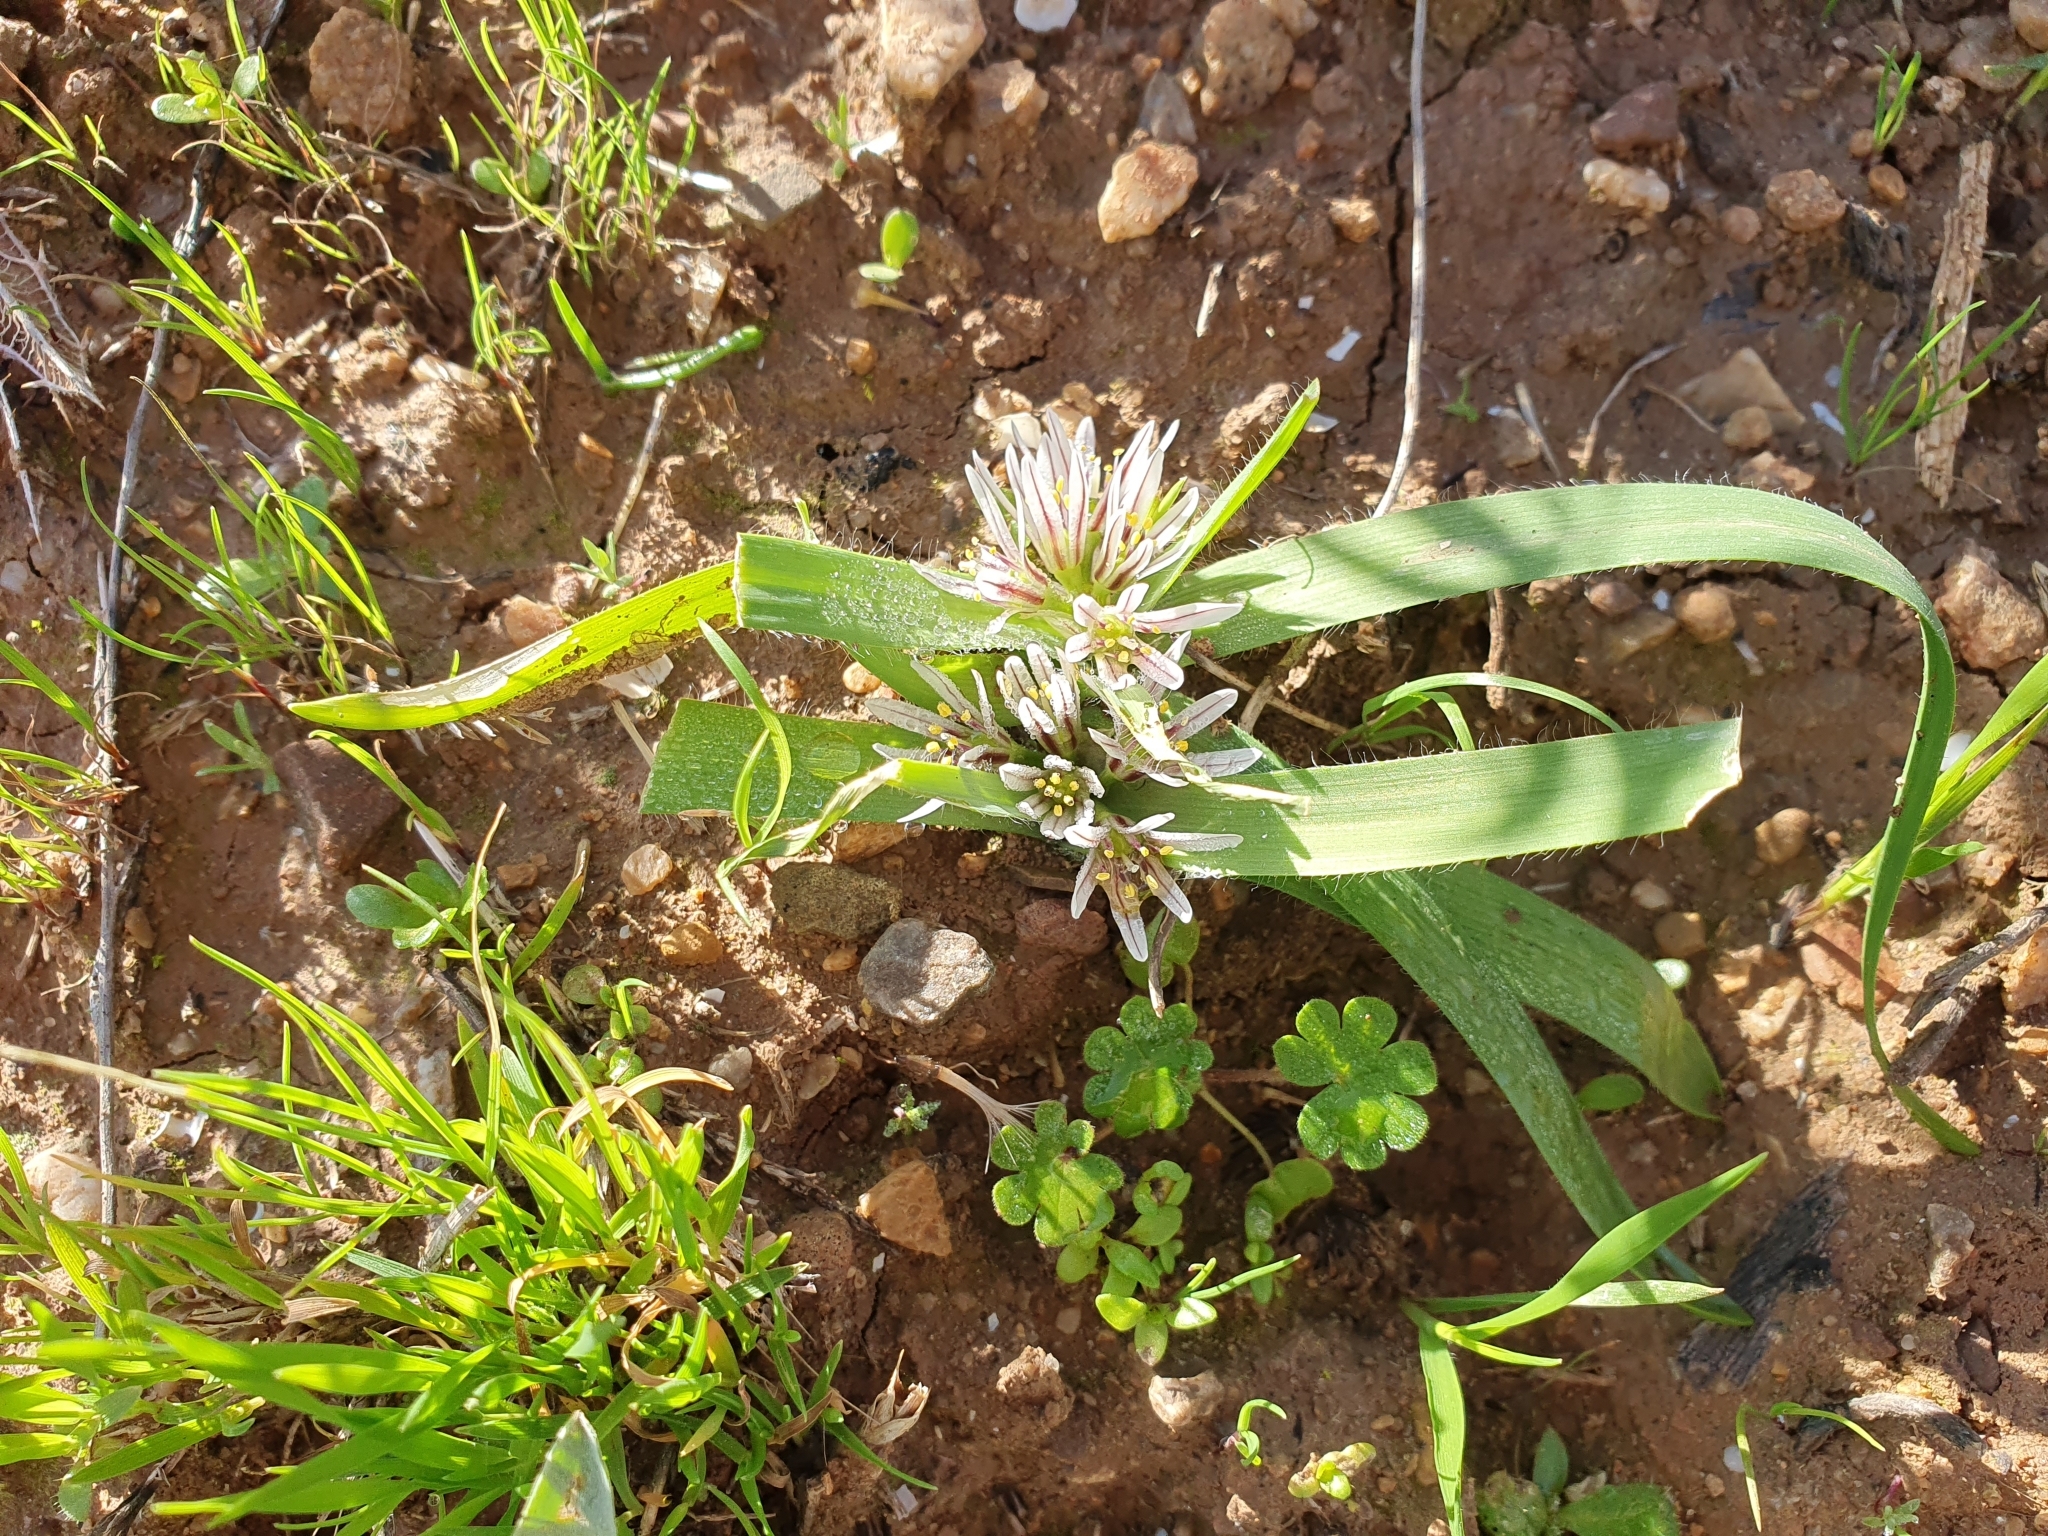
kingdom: Plantae
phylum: Tracheophyta
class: Liliopsida
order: Asparagales
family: Amaryllidaceae
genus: Allium
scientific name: Allium chamaemoly
